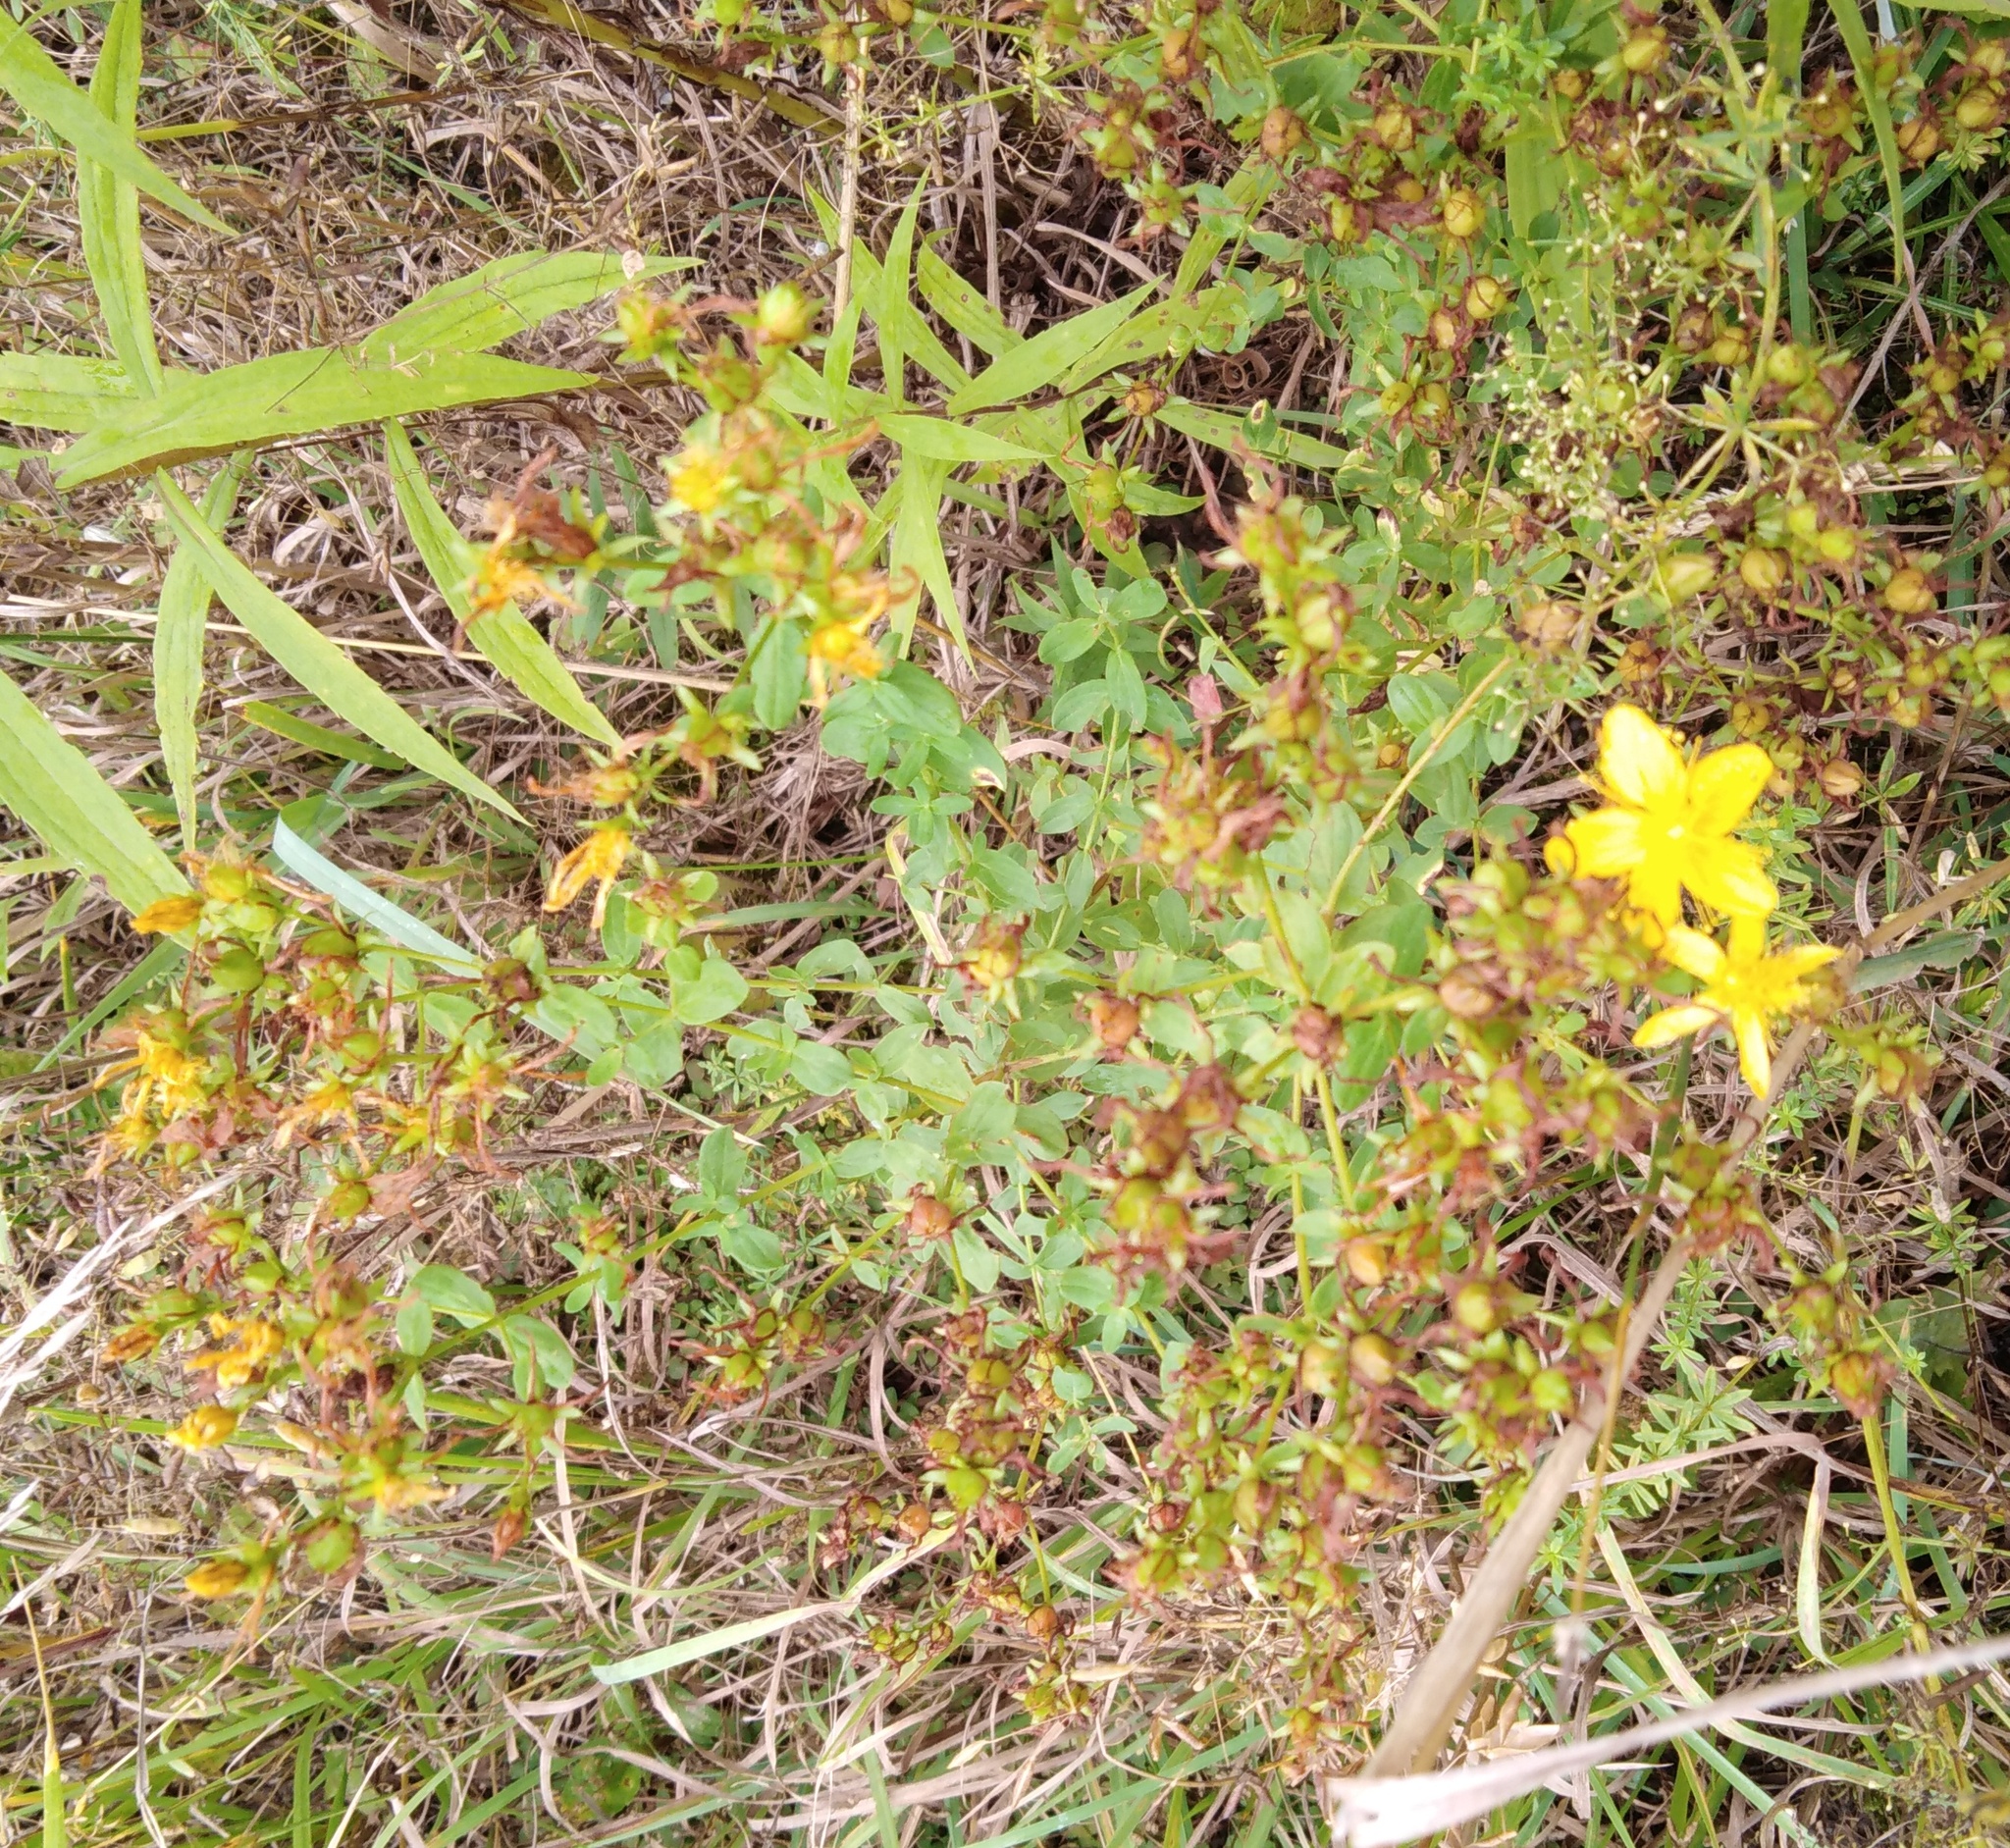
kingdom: Plantae
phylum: Tracheophyta
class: Magnoliopsida
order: Malpighiales
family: Hypericaceae
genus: Hypericum
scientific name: Hypericum perforatum
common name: Common st. johnswort
